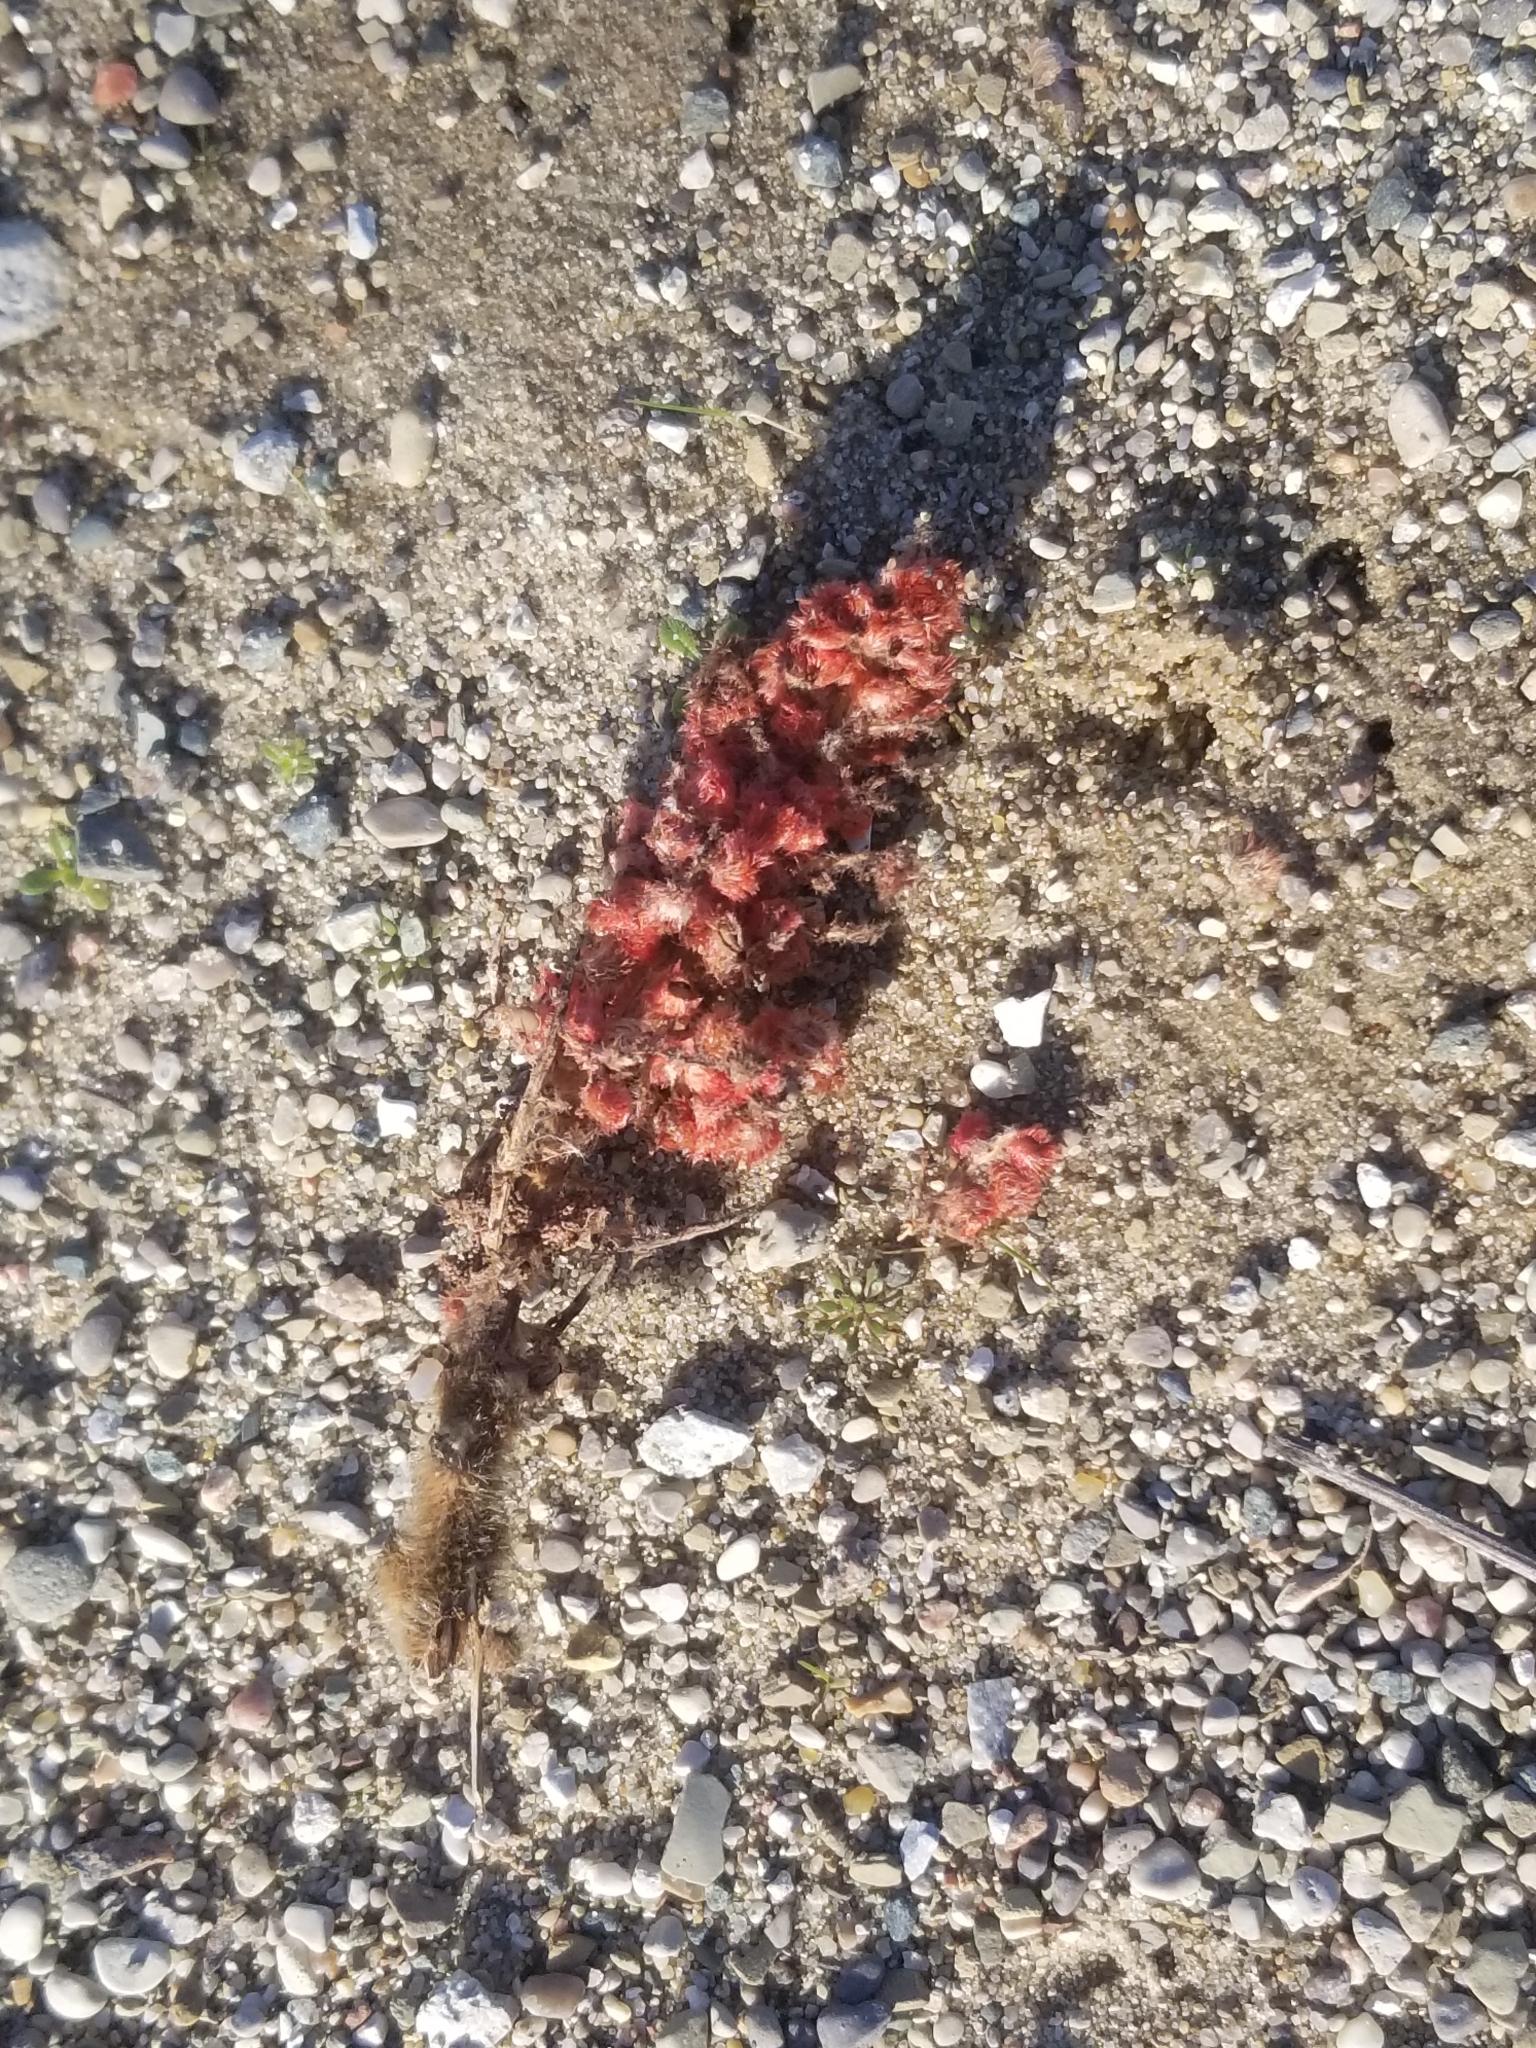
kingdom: Plantae
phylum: Tracheophyta
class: Magnoliopsida
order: Sapindales
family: Anacardiaceae
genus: Rhus
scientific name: Rhus typhina
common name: Staghorn sumac
